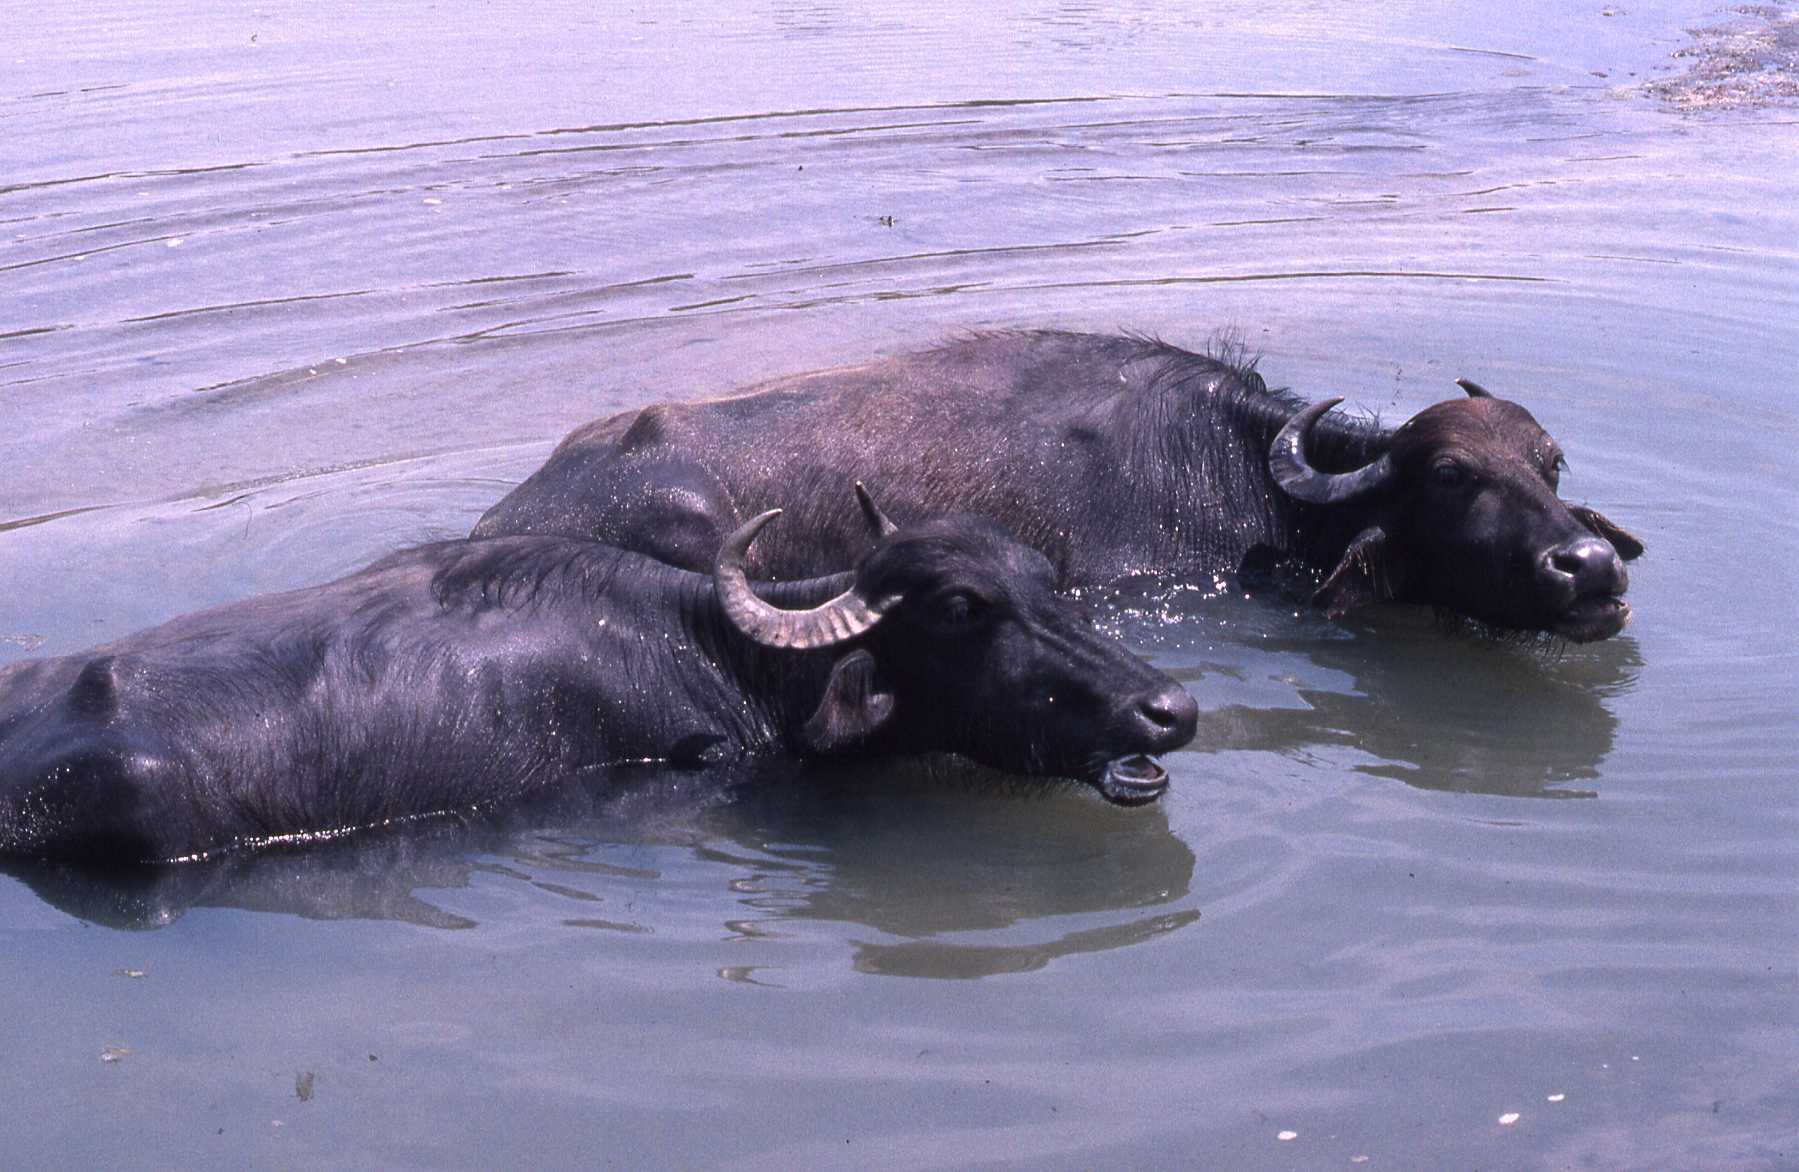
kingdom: Animalia
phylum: Chordata
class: Mammalia
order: Artiodactyla
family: Bovidae
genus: Bubalus
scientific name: Bubalus bubalis
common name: Water buffalo
